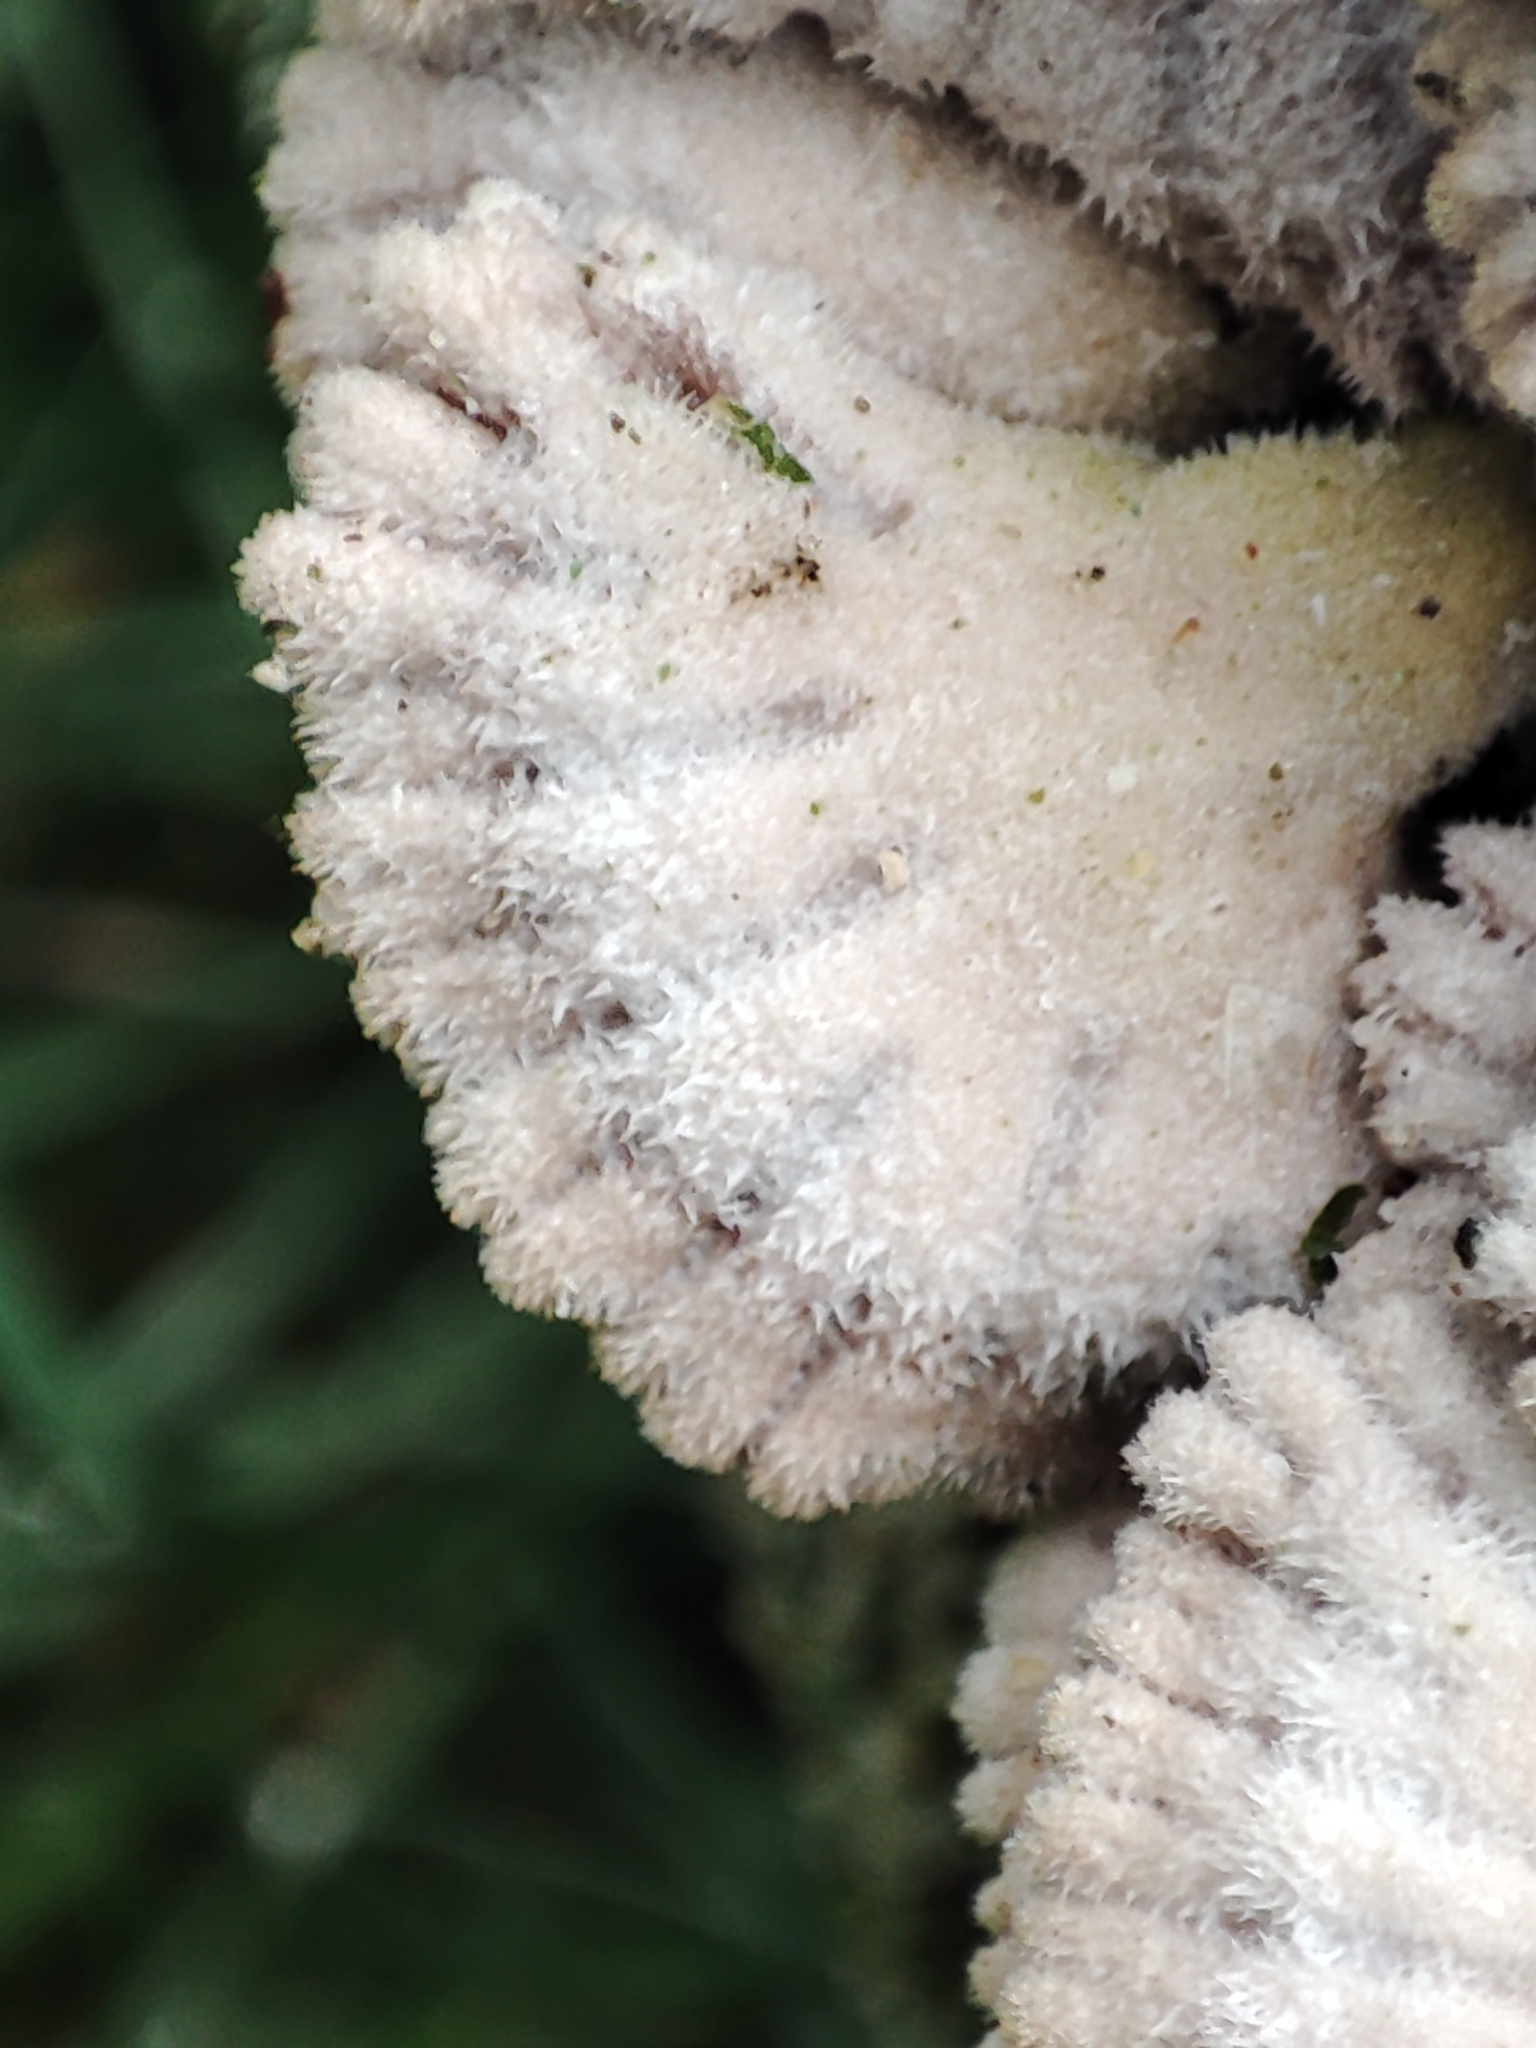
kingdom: Fungi
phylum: Basidiomycota
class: Agaricomycetes
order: Agaricales
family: Schizophyllaceae
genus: Schizophyllum
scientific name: Schizophyllum commune
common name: Common porecrust
